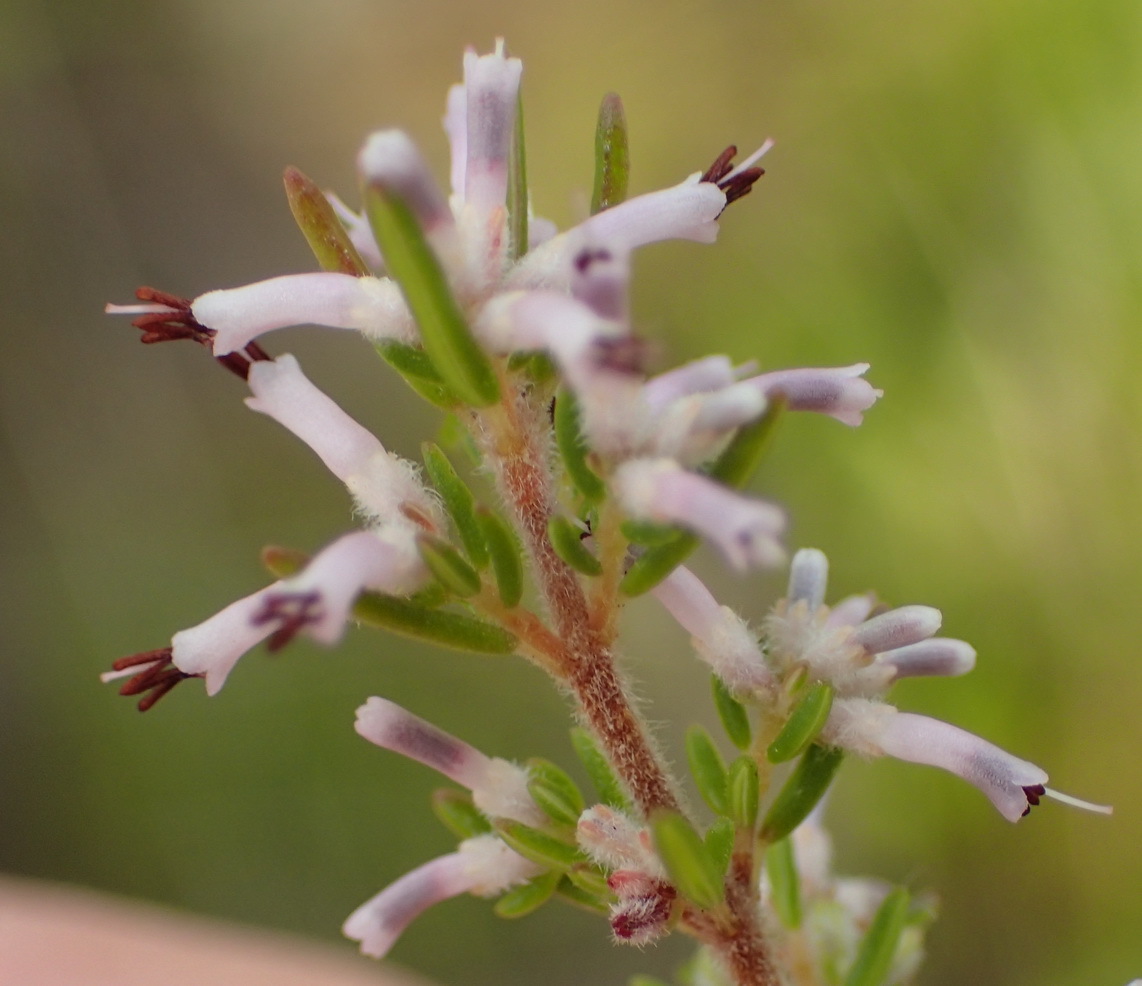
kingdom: Plantae
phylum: Tracheophyta
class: Magnoliopsida
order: Ericales
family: Ericaceae
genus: Erica
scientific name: Erica uberiflora
